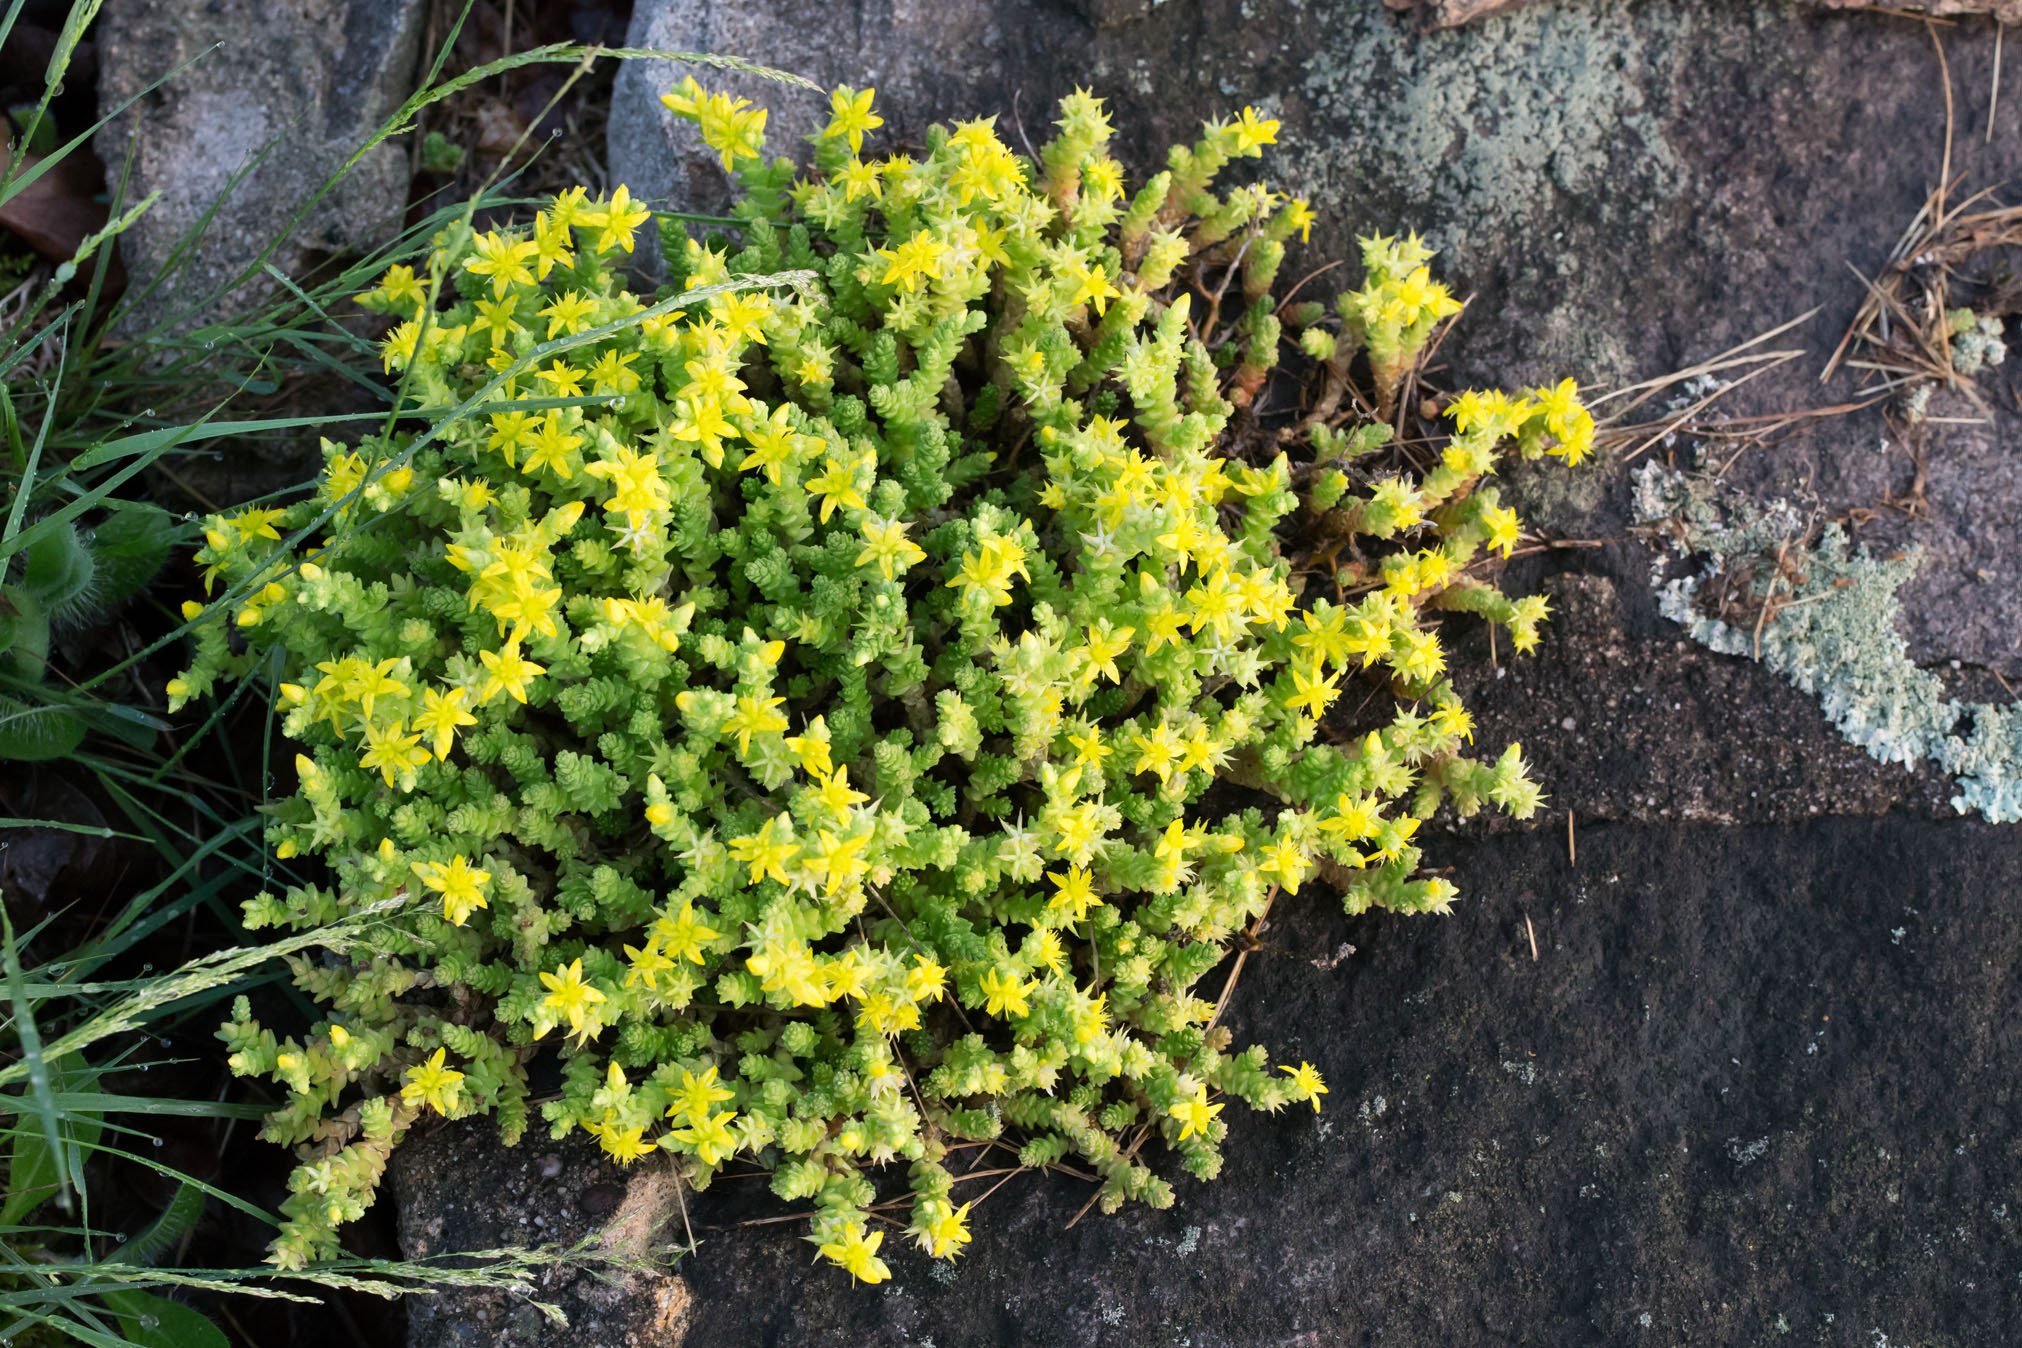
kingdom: Plantae
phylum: Tracheophyta
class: Magnoliopsida
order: Saxifragales
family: Crassulaceae
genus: Sedum
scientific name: Sedum acre
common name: Biting stonecrop
